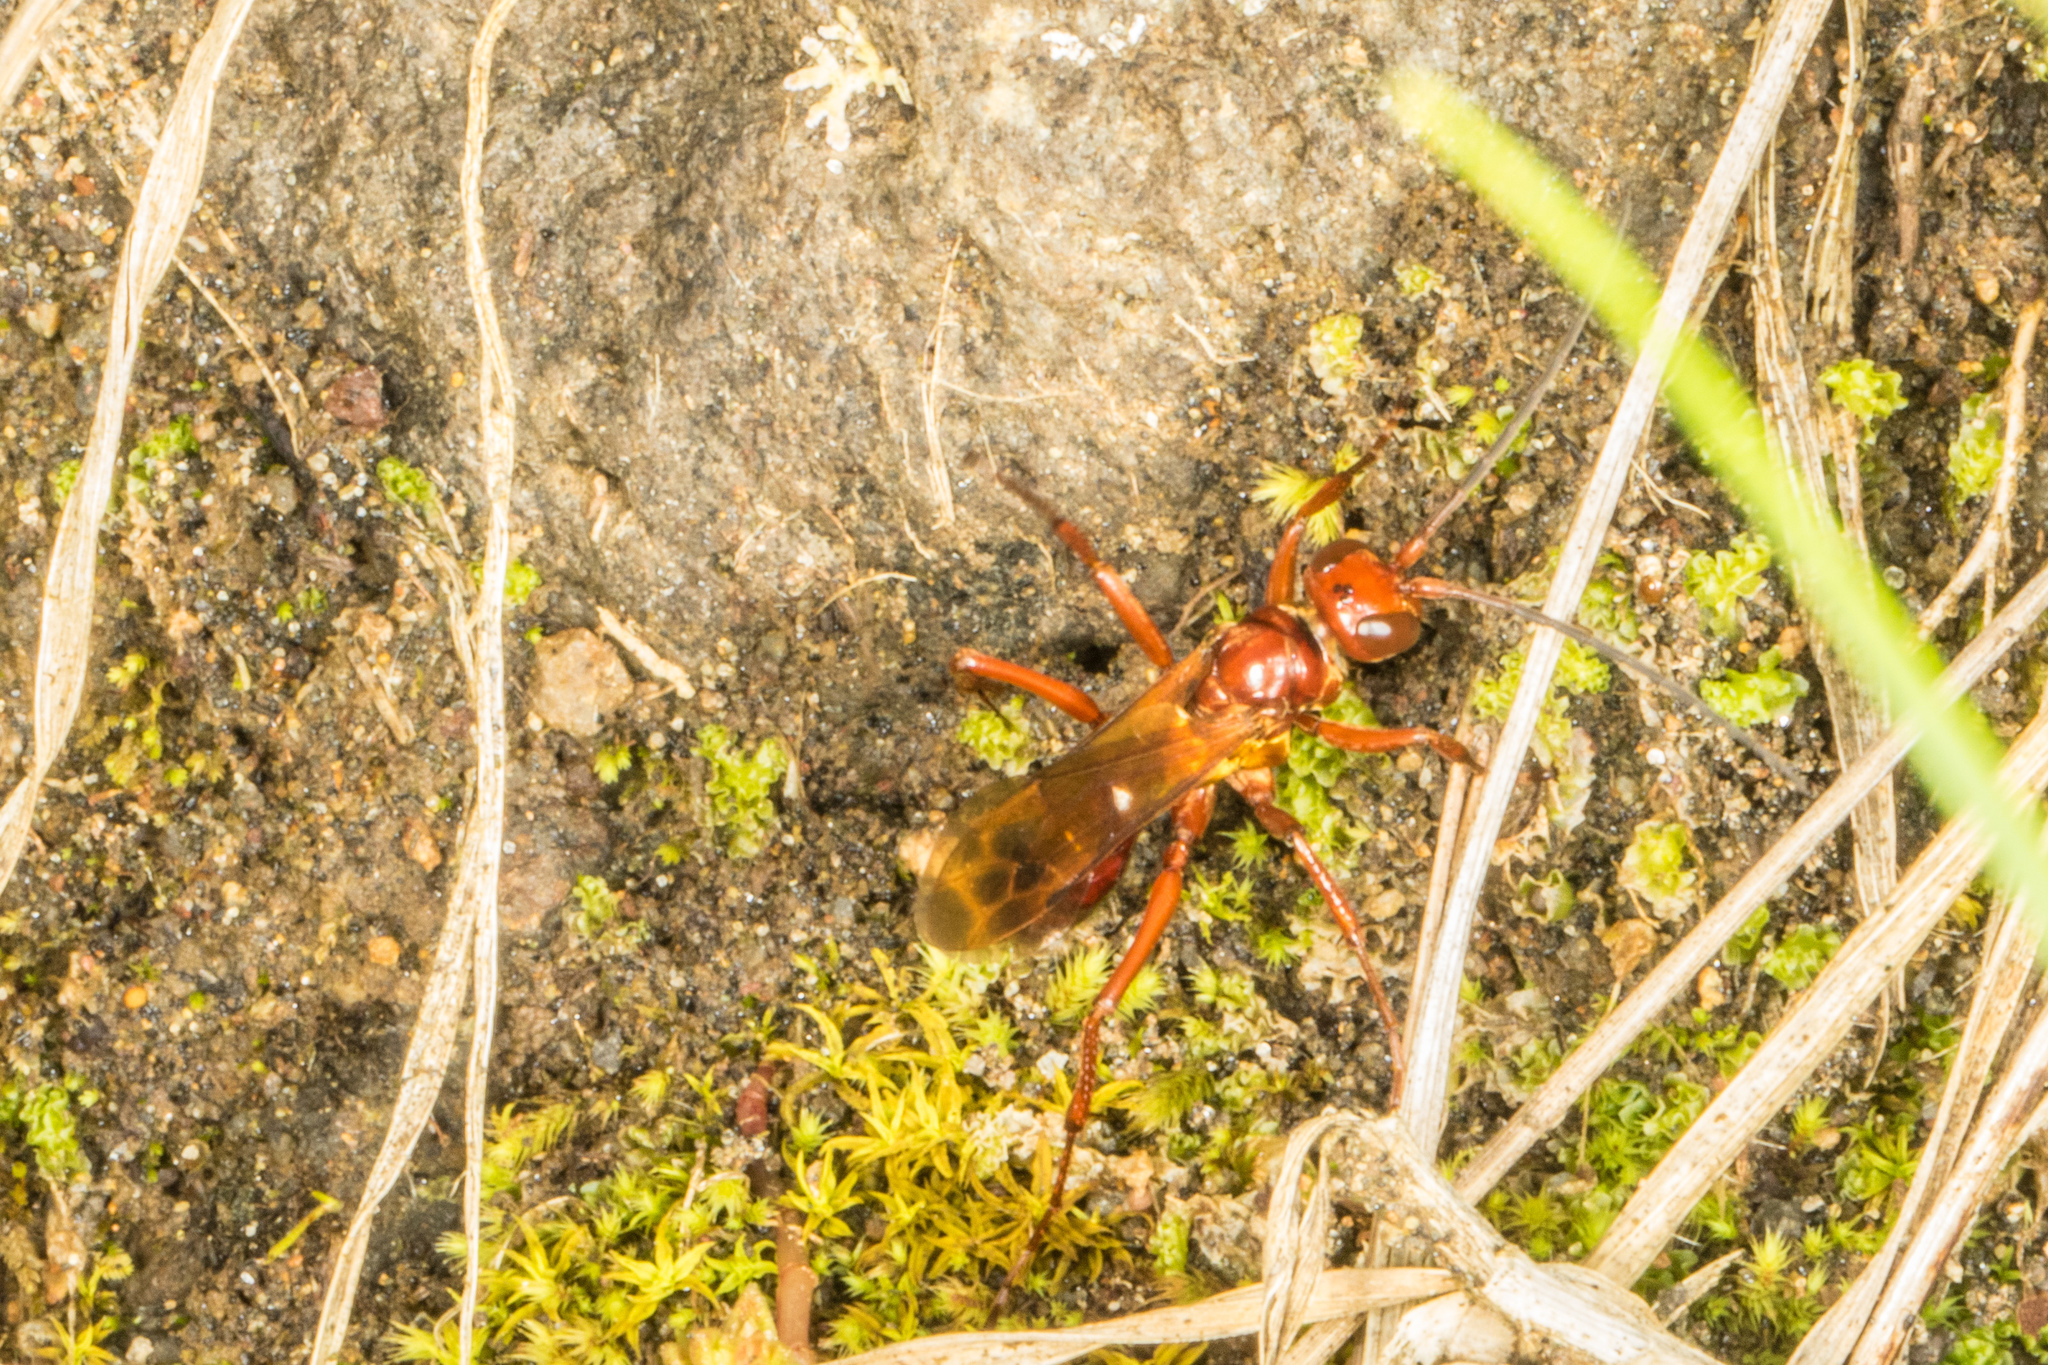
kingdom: Animalia
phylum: Arthropoda
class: Insecta
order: Hymenoptera
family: Pompilidae
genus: Sphictostethus
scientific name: Sphictostethus nitidus
